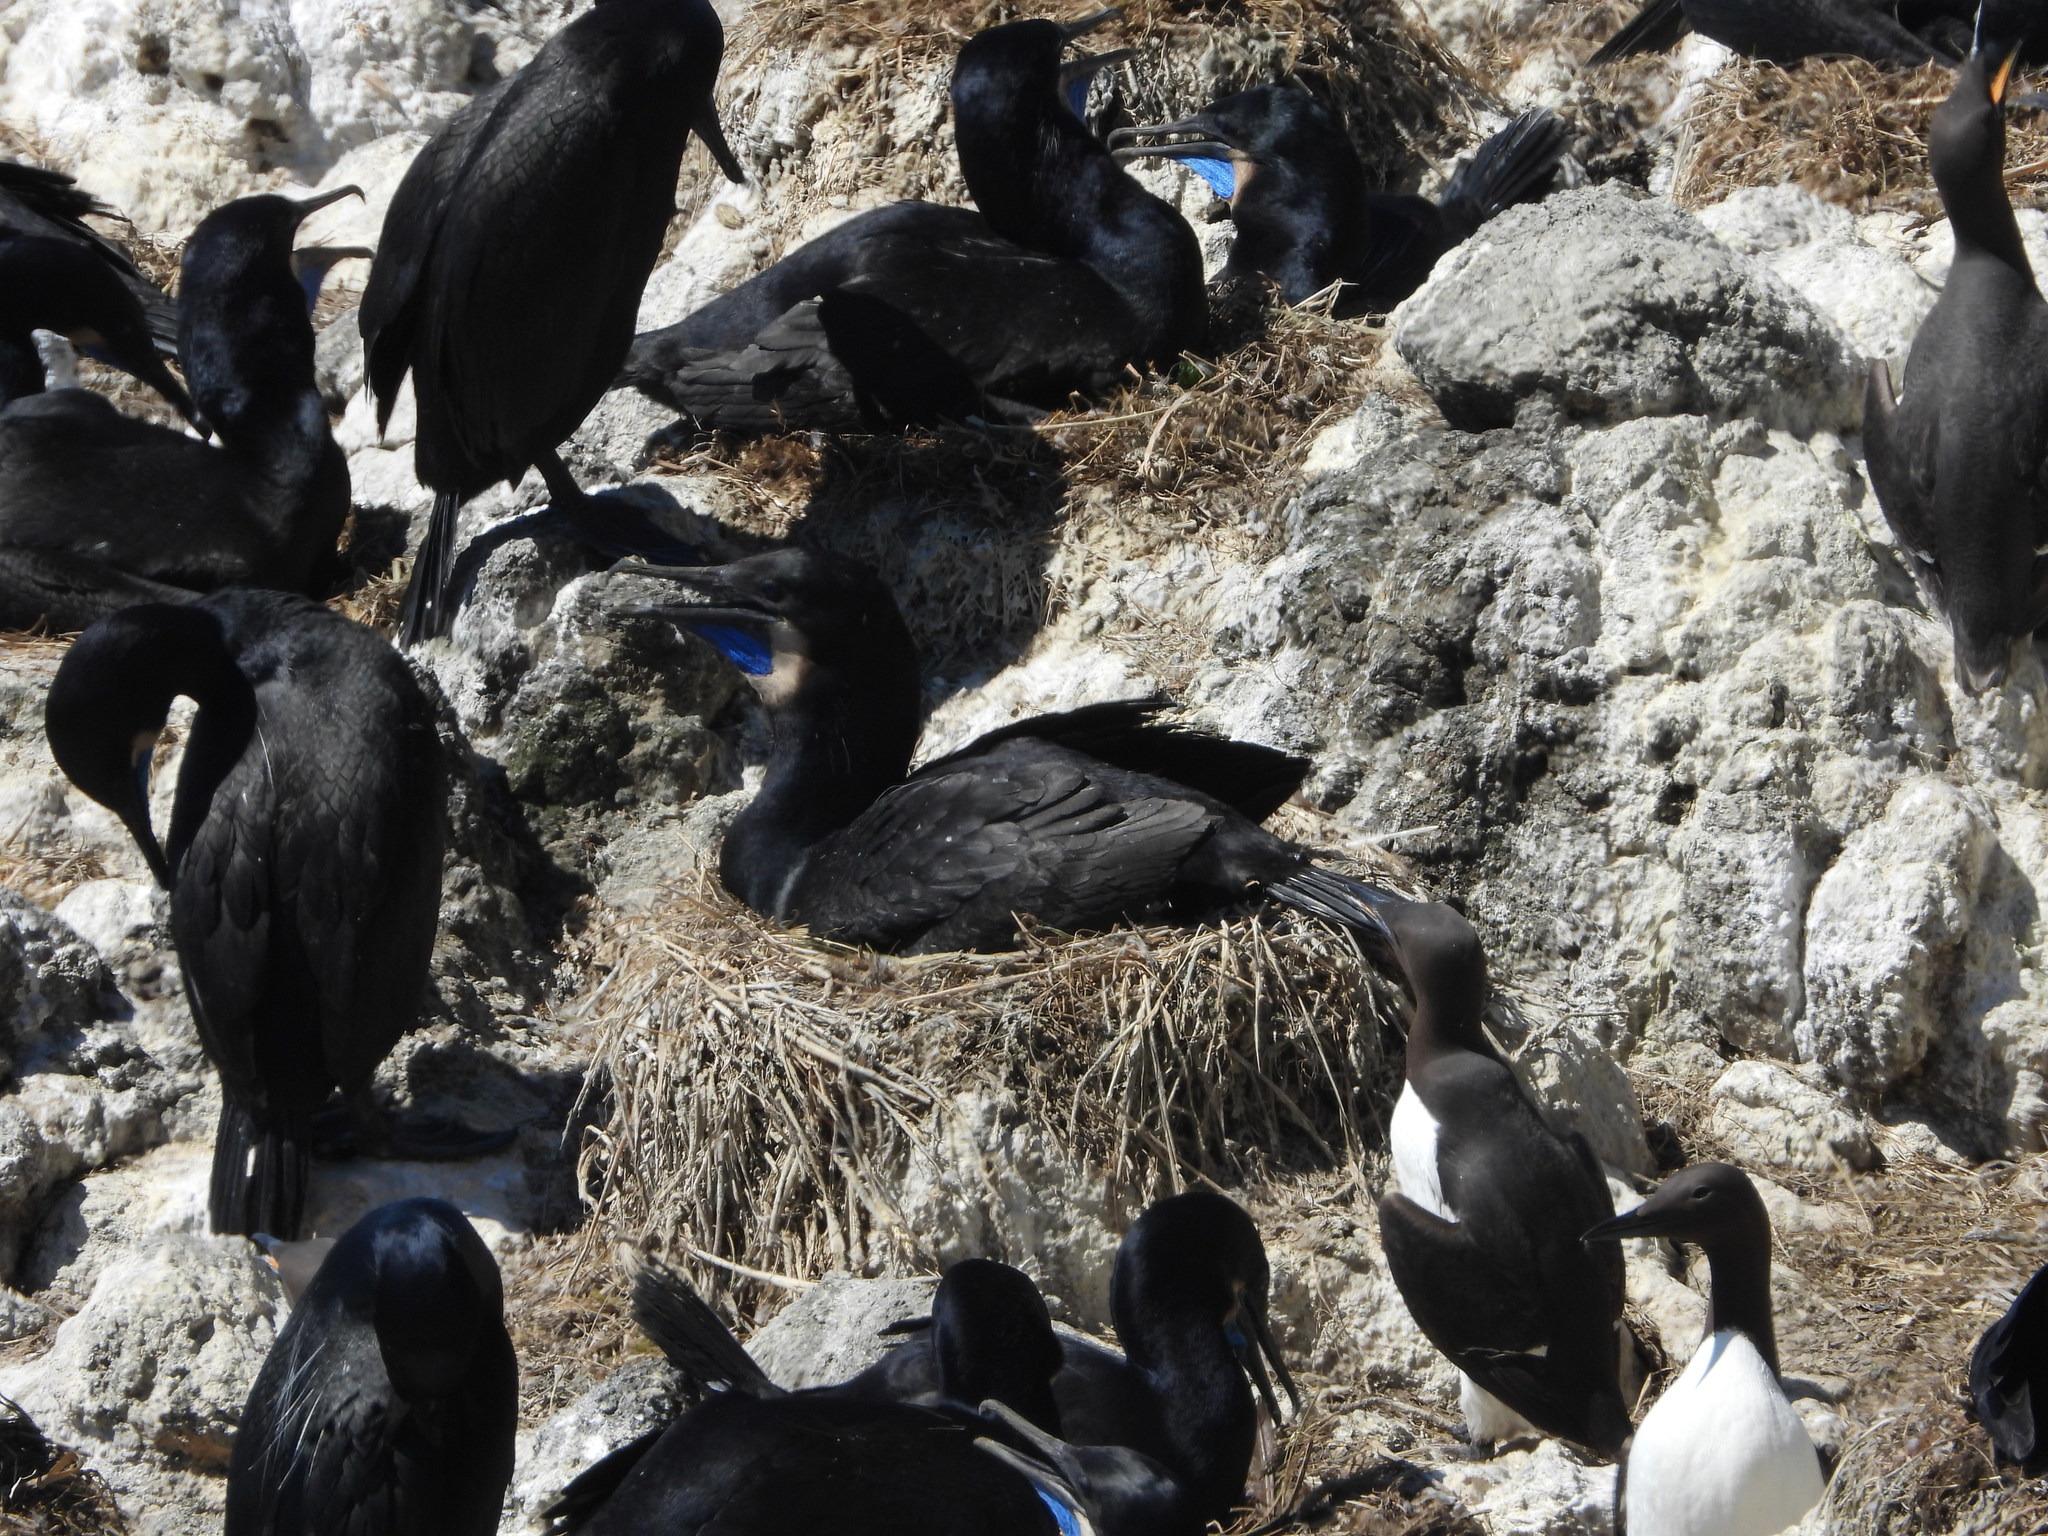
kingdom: Animalia
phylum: Chordata
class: Aves
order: Suliformes
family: Phalacrocoracidae
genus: Urile
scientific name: Urile penicillatus
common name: Brandt's cormorant
